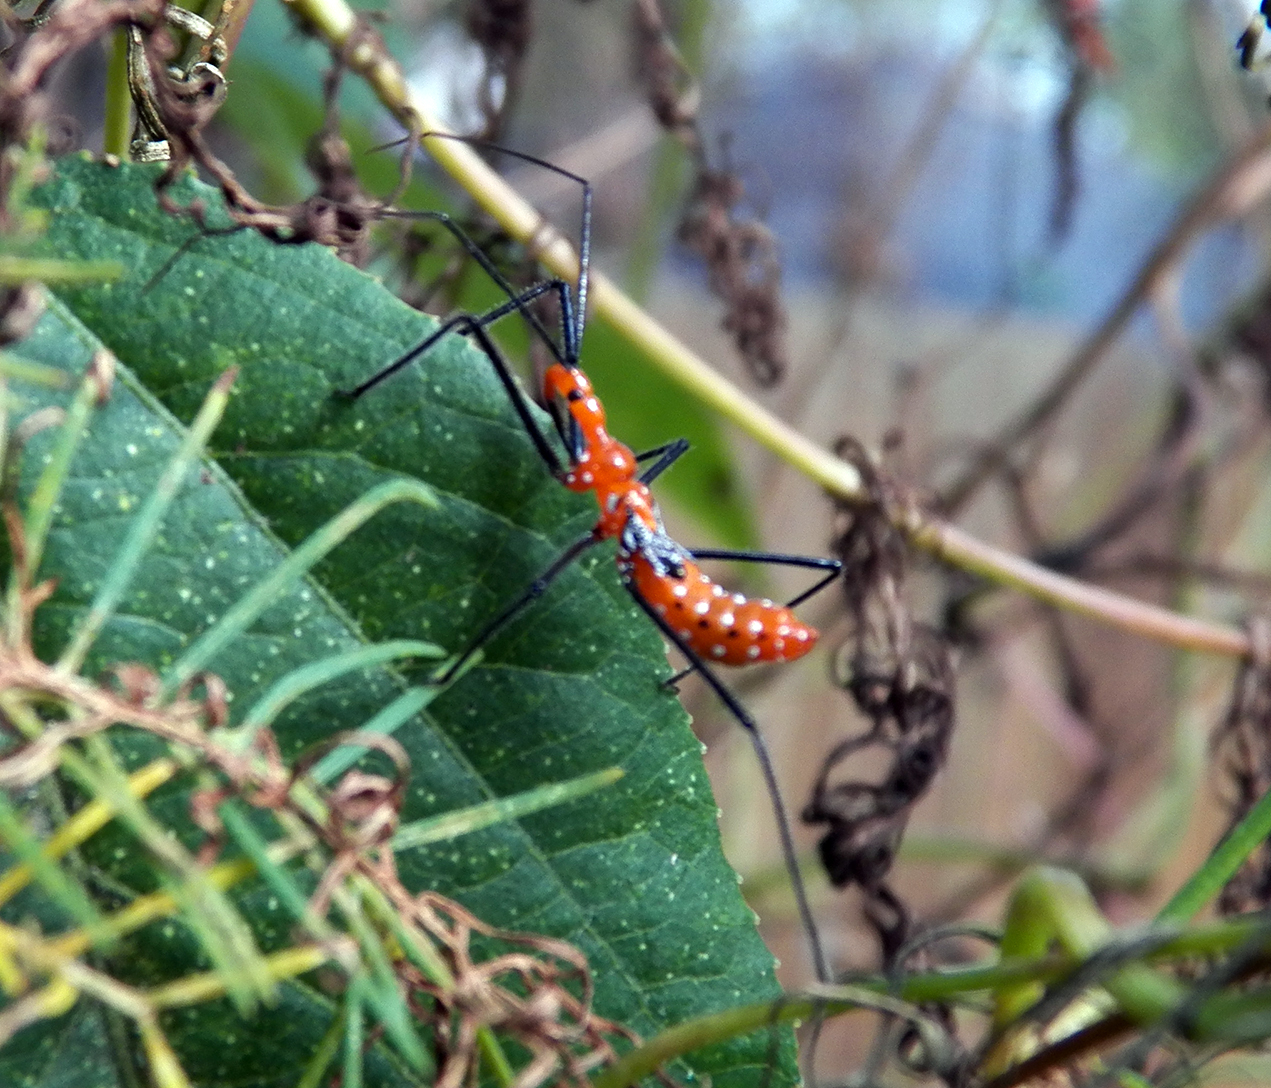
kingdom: Animalia
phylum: Arthropoda
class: Insecta
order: Hemiptera
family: Reduviidae
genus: Zelus
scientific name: Zelus longipes
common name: Milkweed assassin bug
